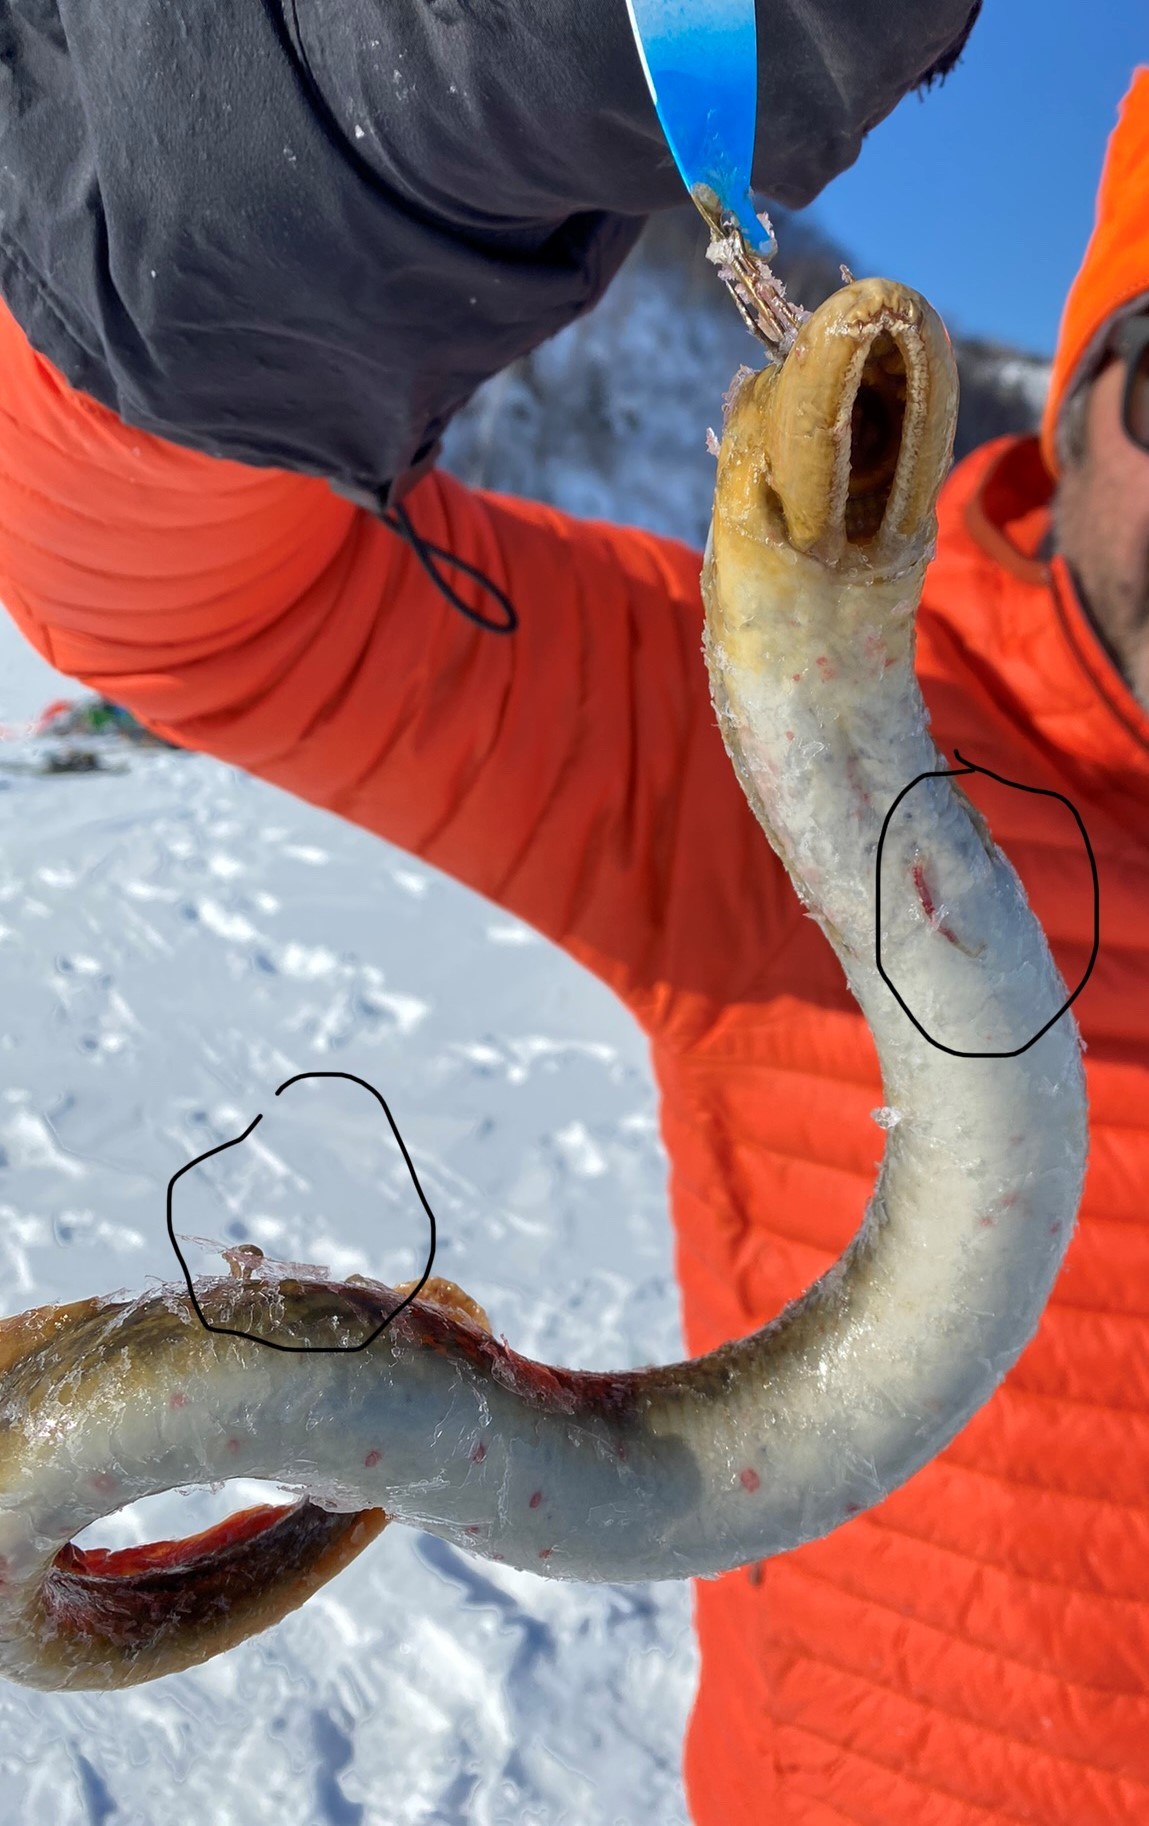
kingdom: Animalia
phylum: Chordata
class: Petromyzonti
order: Petromyzontiformes
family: Petromyzontidae
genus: Petromyzon
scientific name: Petromyzon marinus
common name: Sea lamprey
